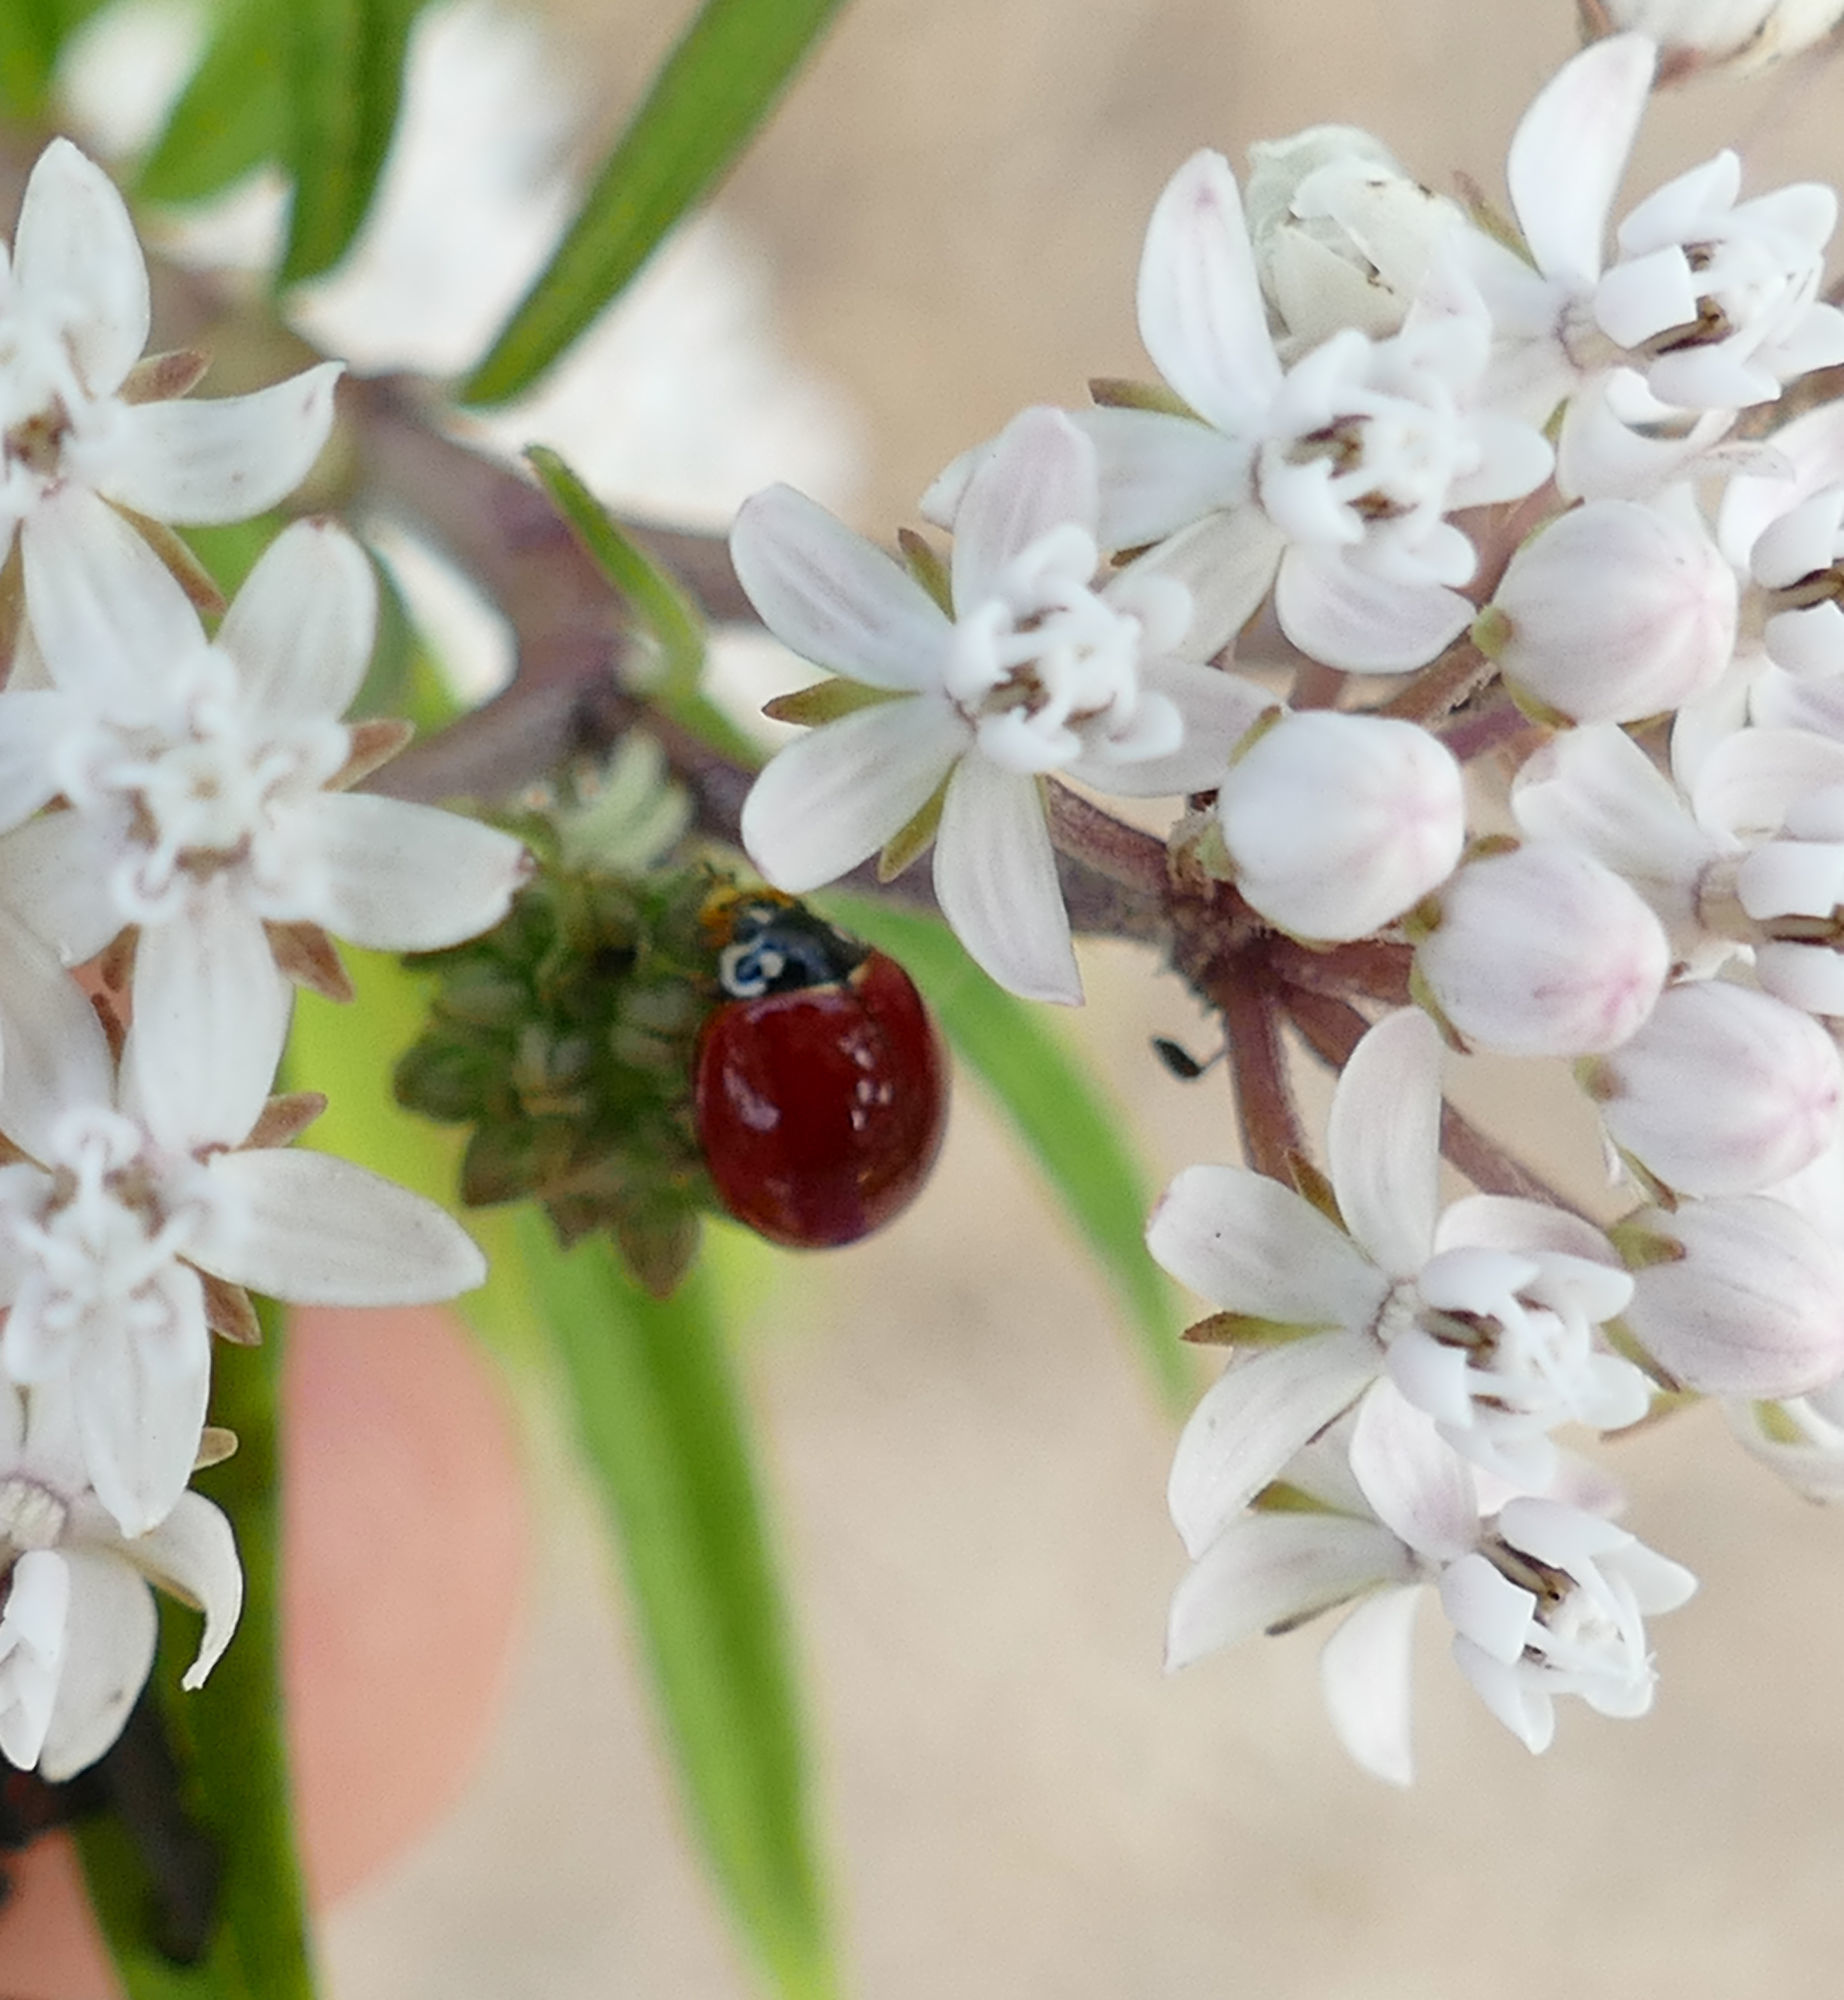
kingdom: Animalia
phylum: Arthropoda
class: Insecta
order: Coleoptera
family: Coccinellidae
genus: Cycloneda
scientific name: Cycloneda sanguinea
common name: Ladybird beetle
